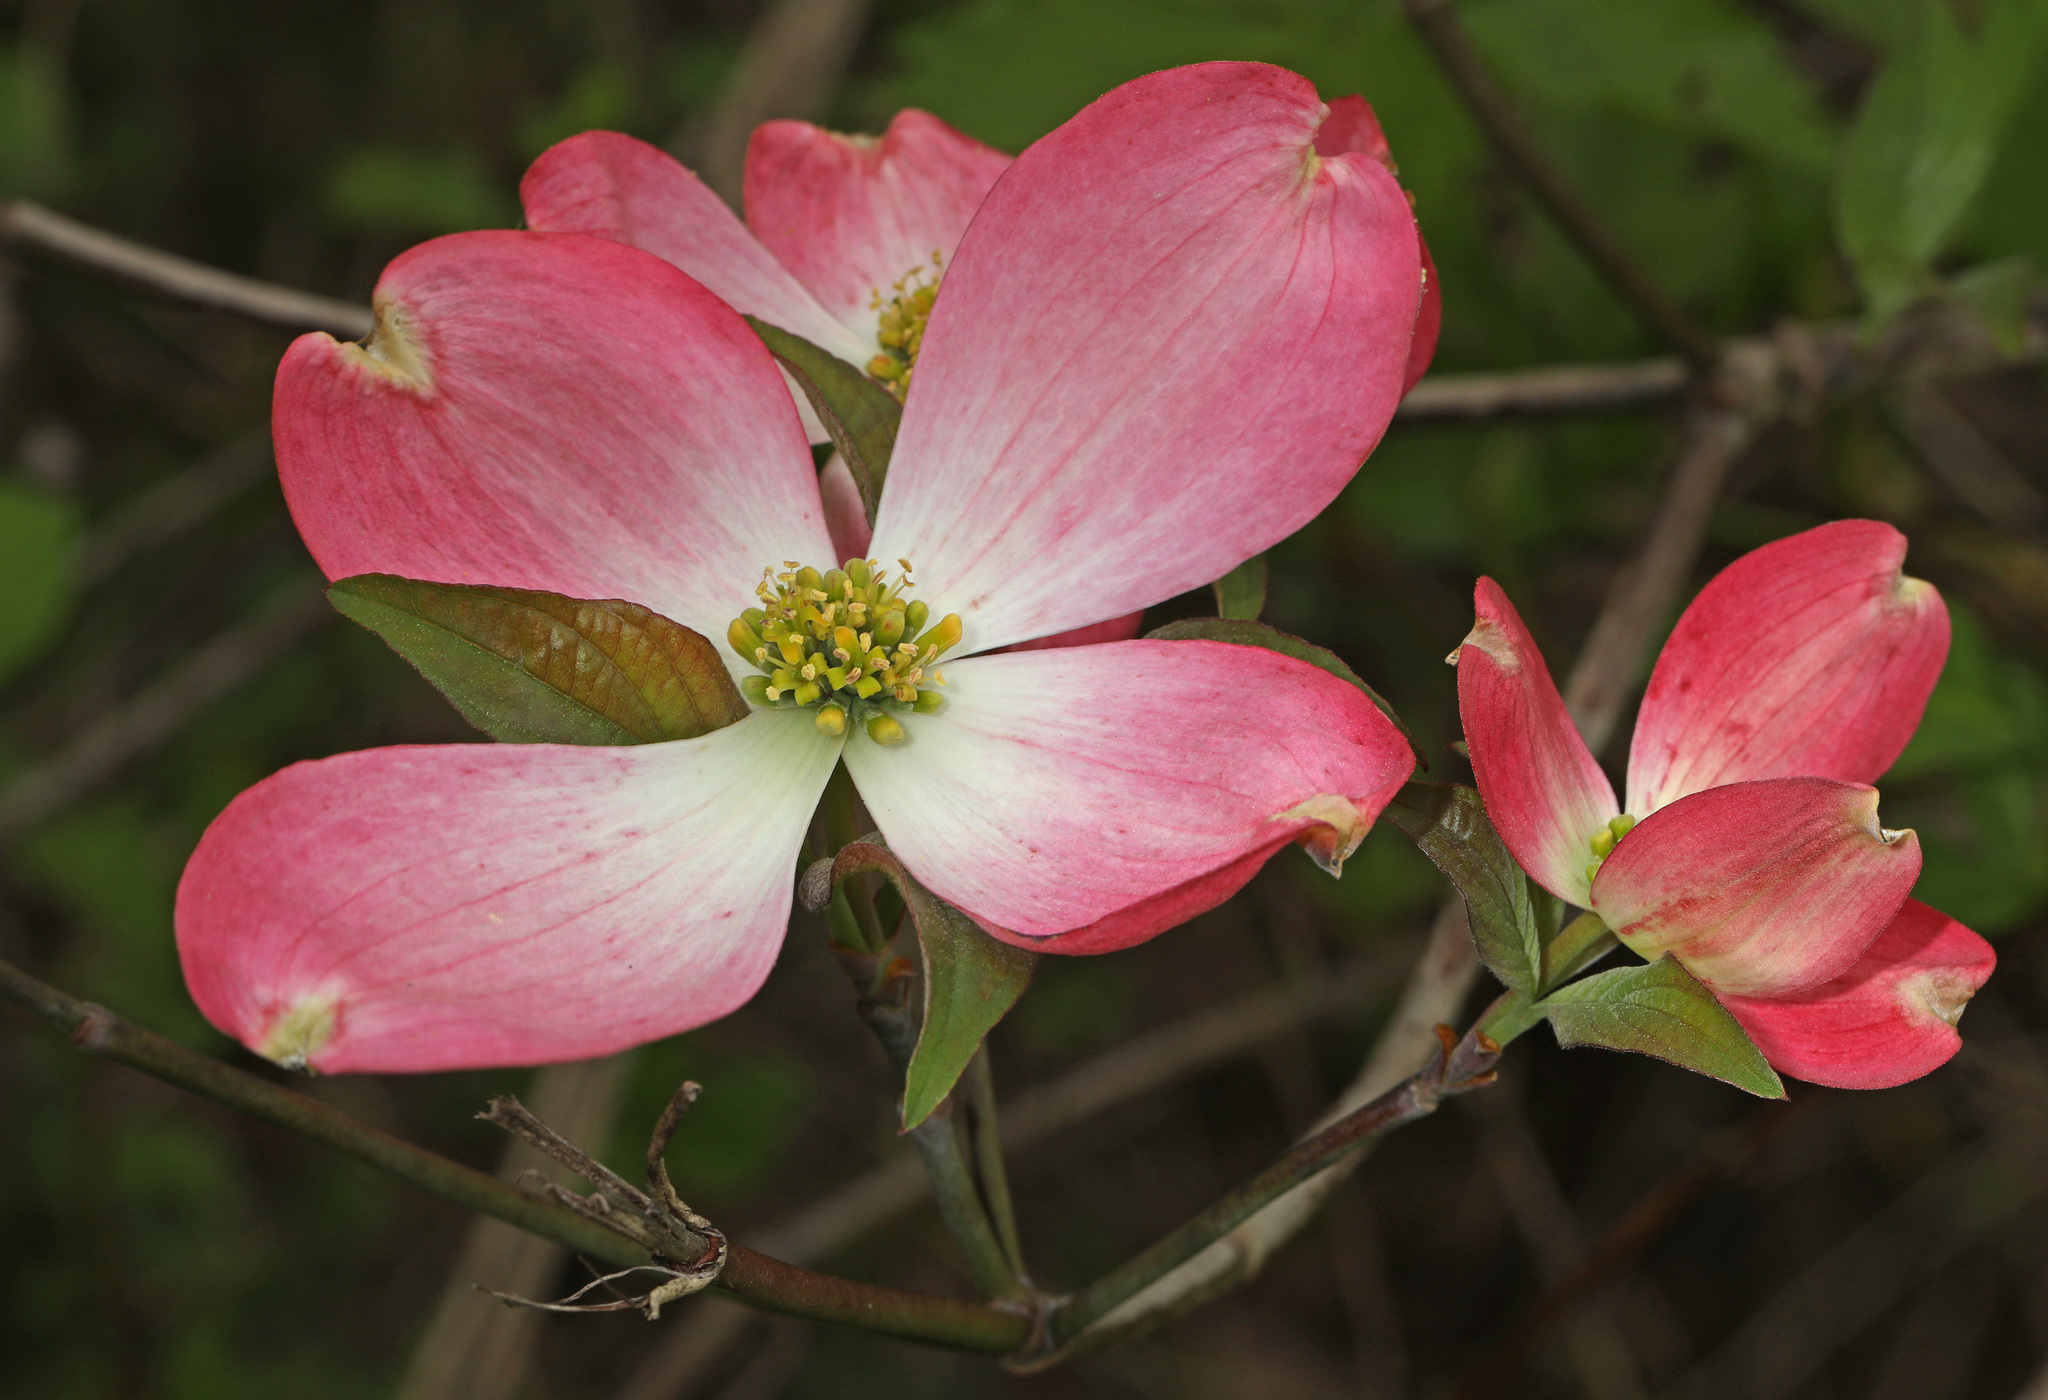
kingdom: Plantae
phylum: Tracheophyta
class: Magnoliopsida
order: Cornales
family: Cornaceae
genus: Cornus
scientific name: Cornus florida
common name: Flowering dogwood
